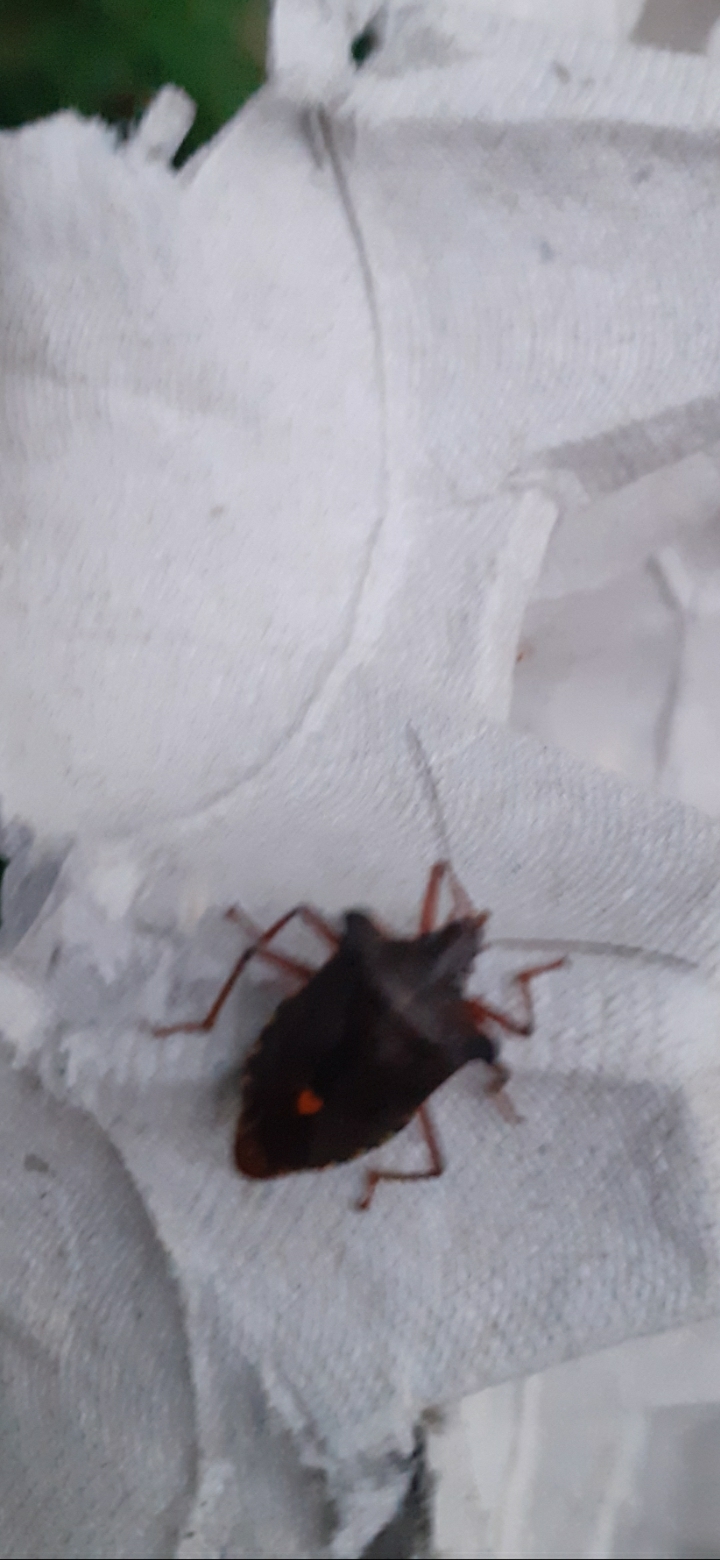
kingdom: Animalia
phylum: Arthropoda
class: Insecta
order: Hemiptera
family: Pentatomidae
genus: Pentatoma
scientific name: Pentatoma rufipes
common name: Forest bug
